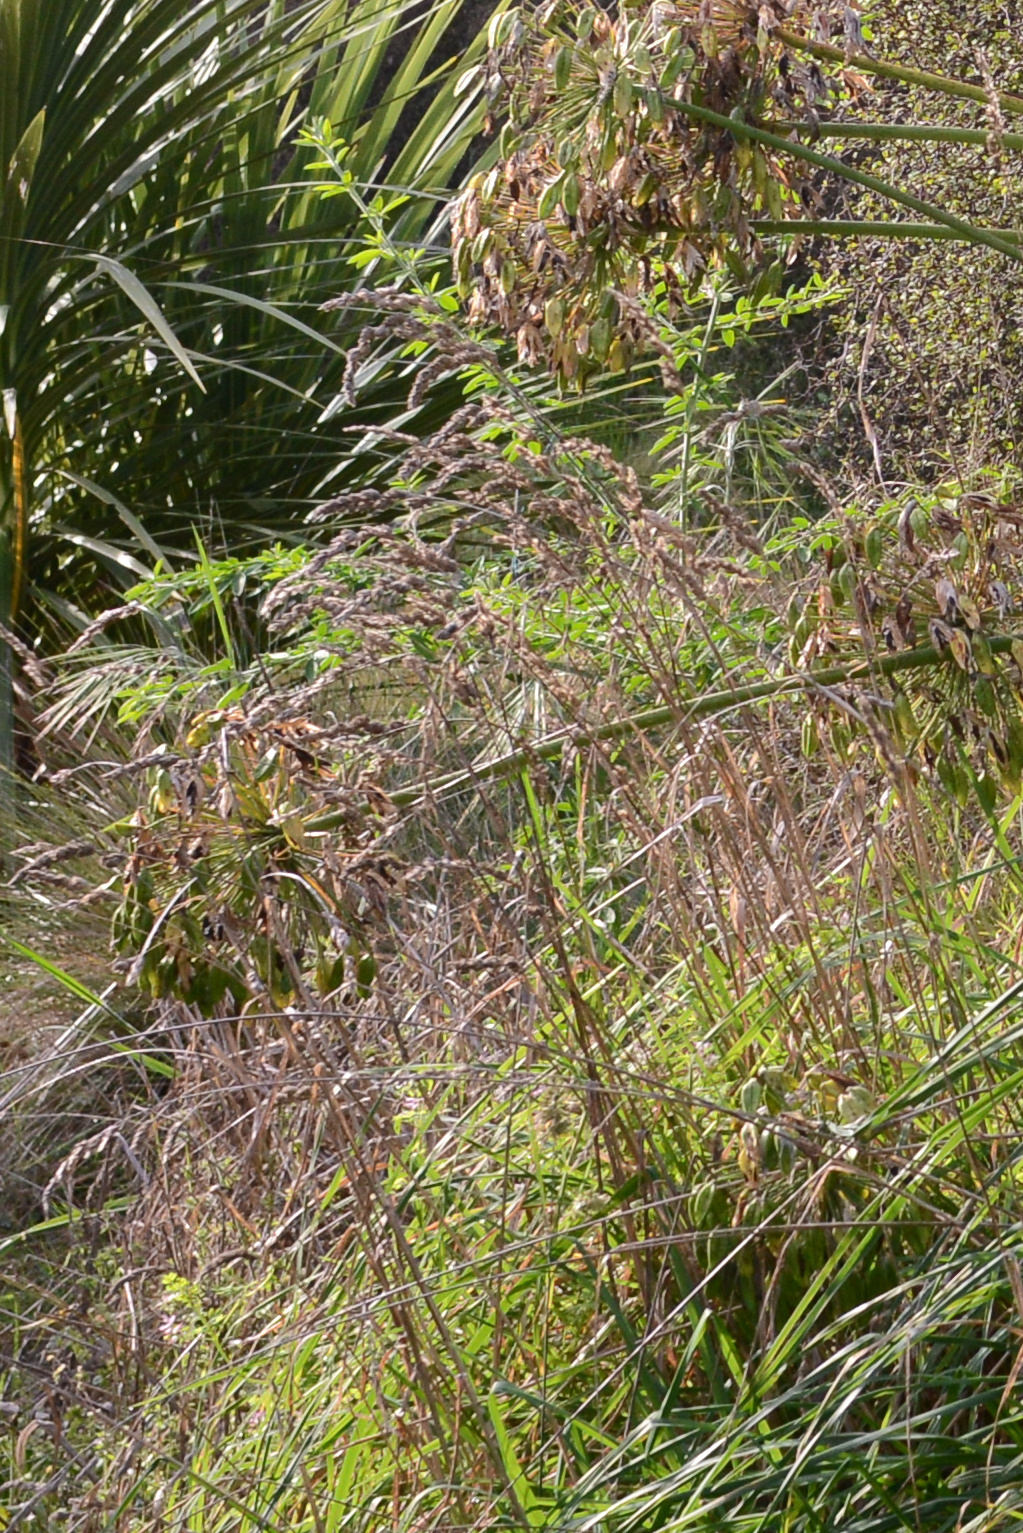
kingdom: Plantae
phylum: Tracheophyta
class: Magnoliopsida
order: Fabales
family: Fabaceae
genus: Chamaecytisus
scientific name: Chamaecytisus prolifer
